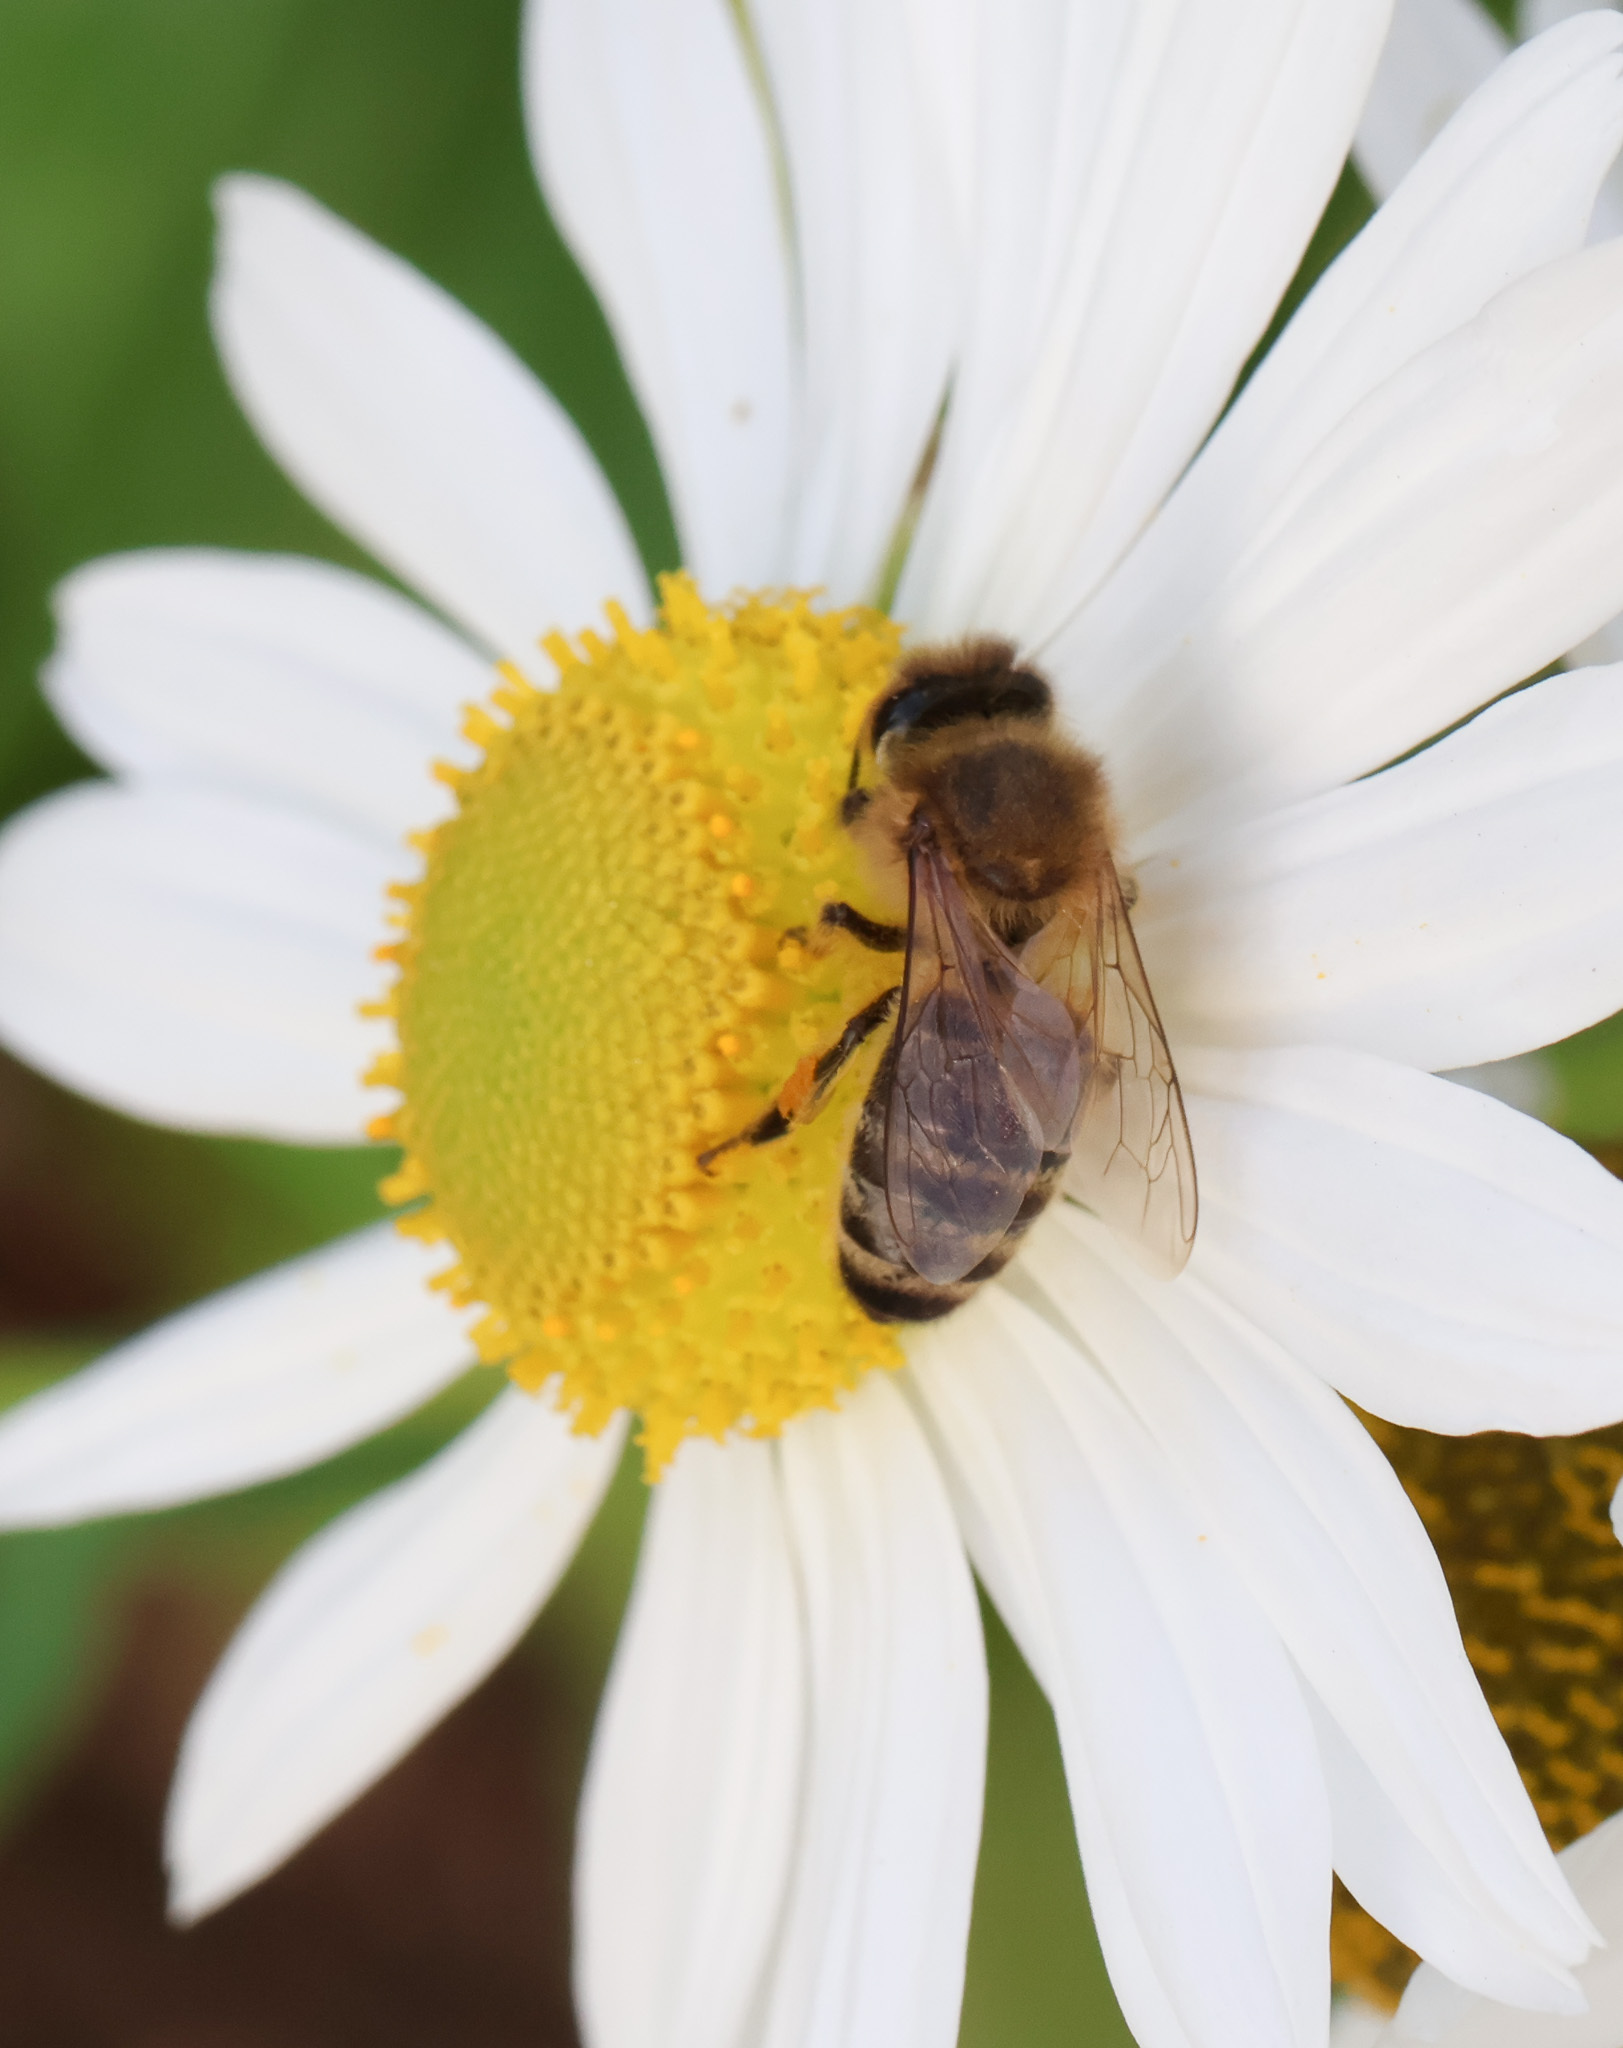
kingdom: Animalia
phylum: Arthropoda
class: Insecta
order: Hymenoptera
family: Apidae
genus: Apis
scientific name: Apis mellifera
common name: Honey bee
